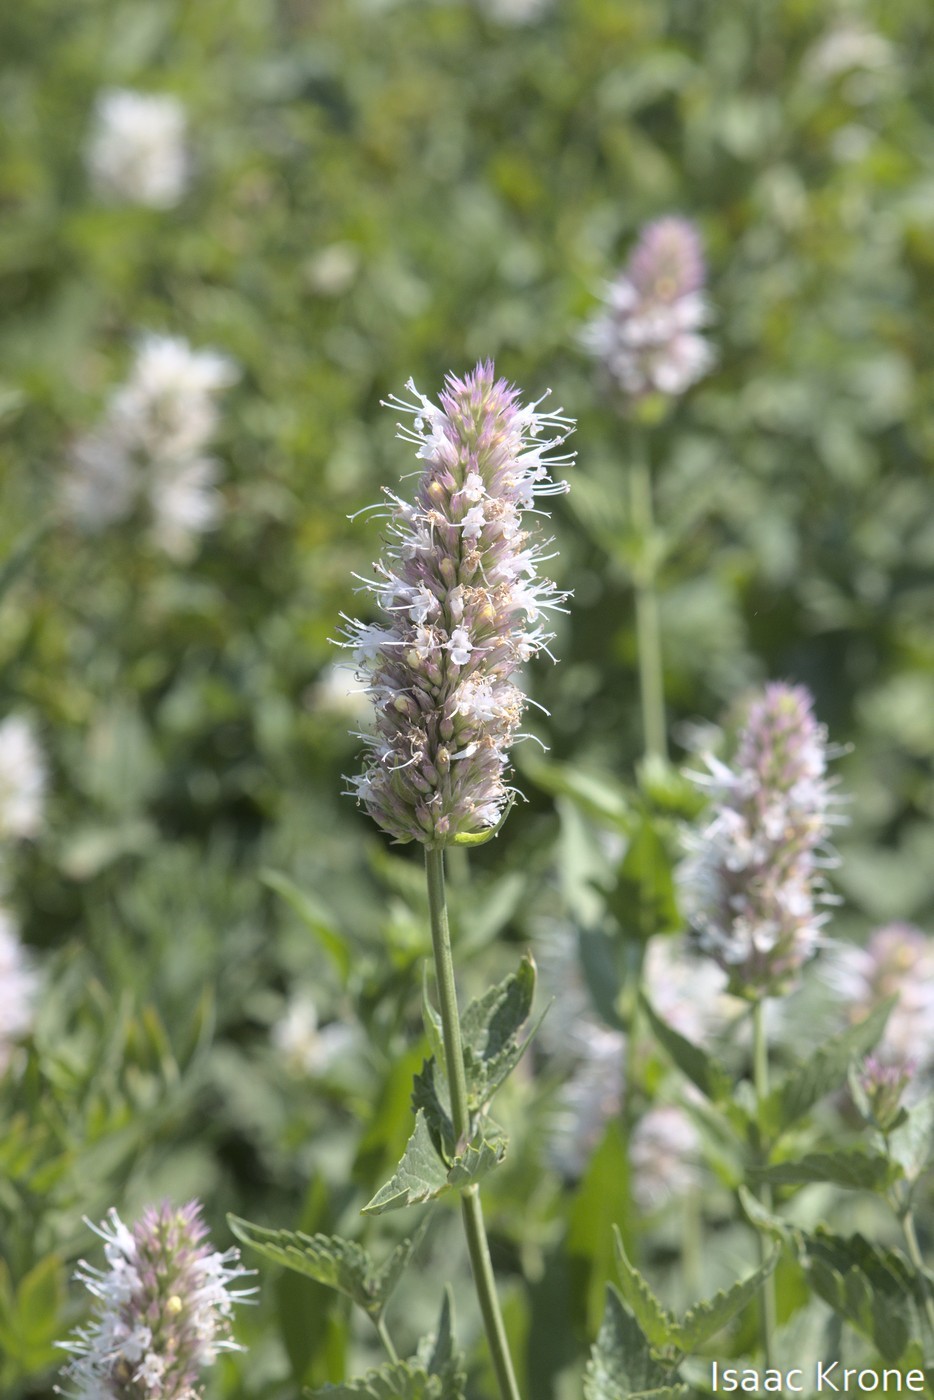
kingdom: Plantae
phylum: Tracheophyta
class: Magnoliopsida
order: Lamiales
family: Lamiaceae
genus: Agastache
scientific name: Agastache urticifolia
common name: Horsemint giant hyssop
